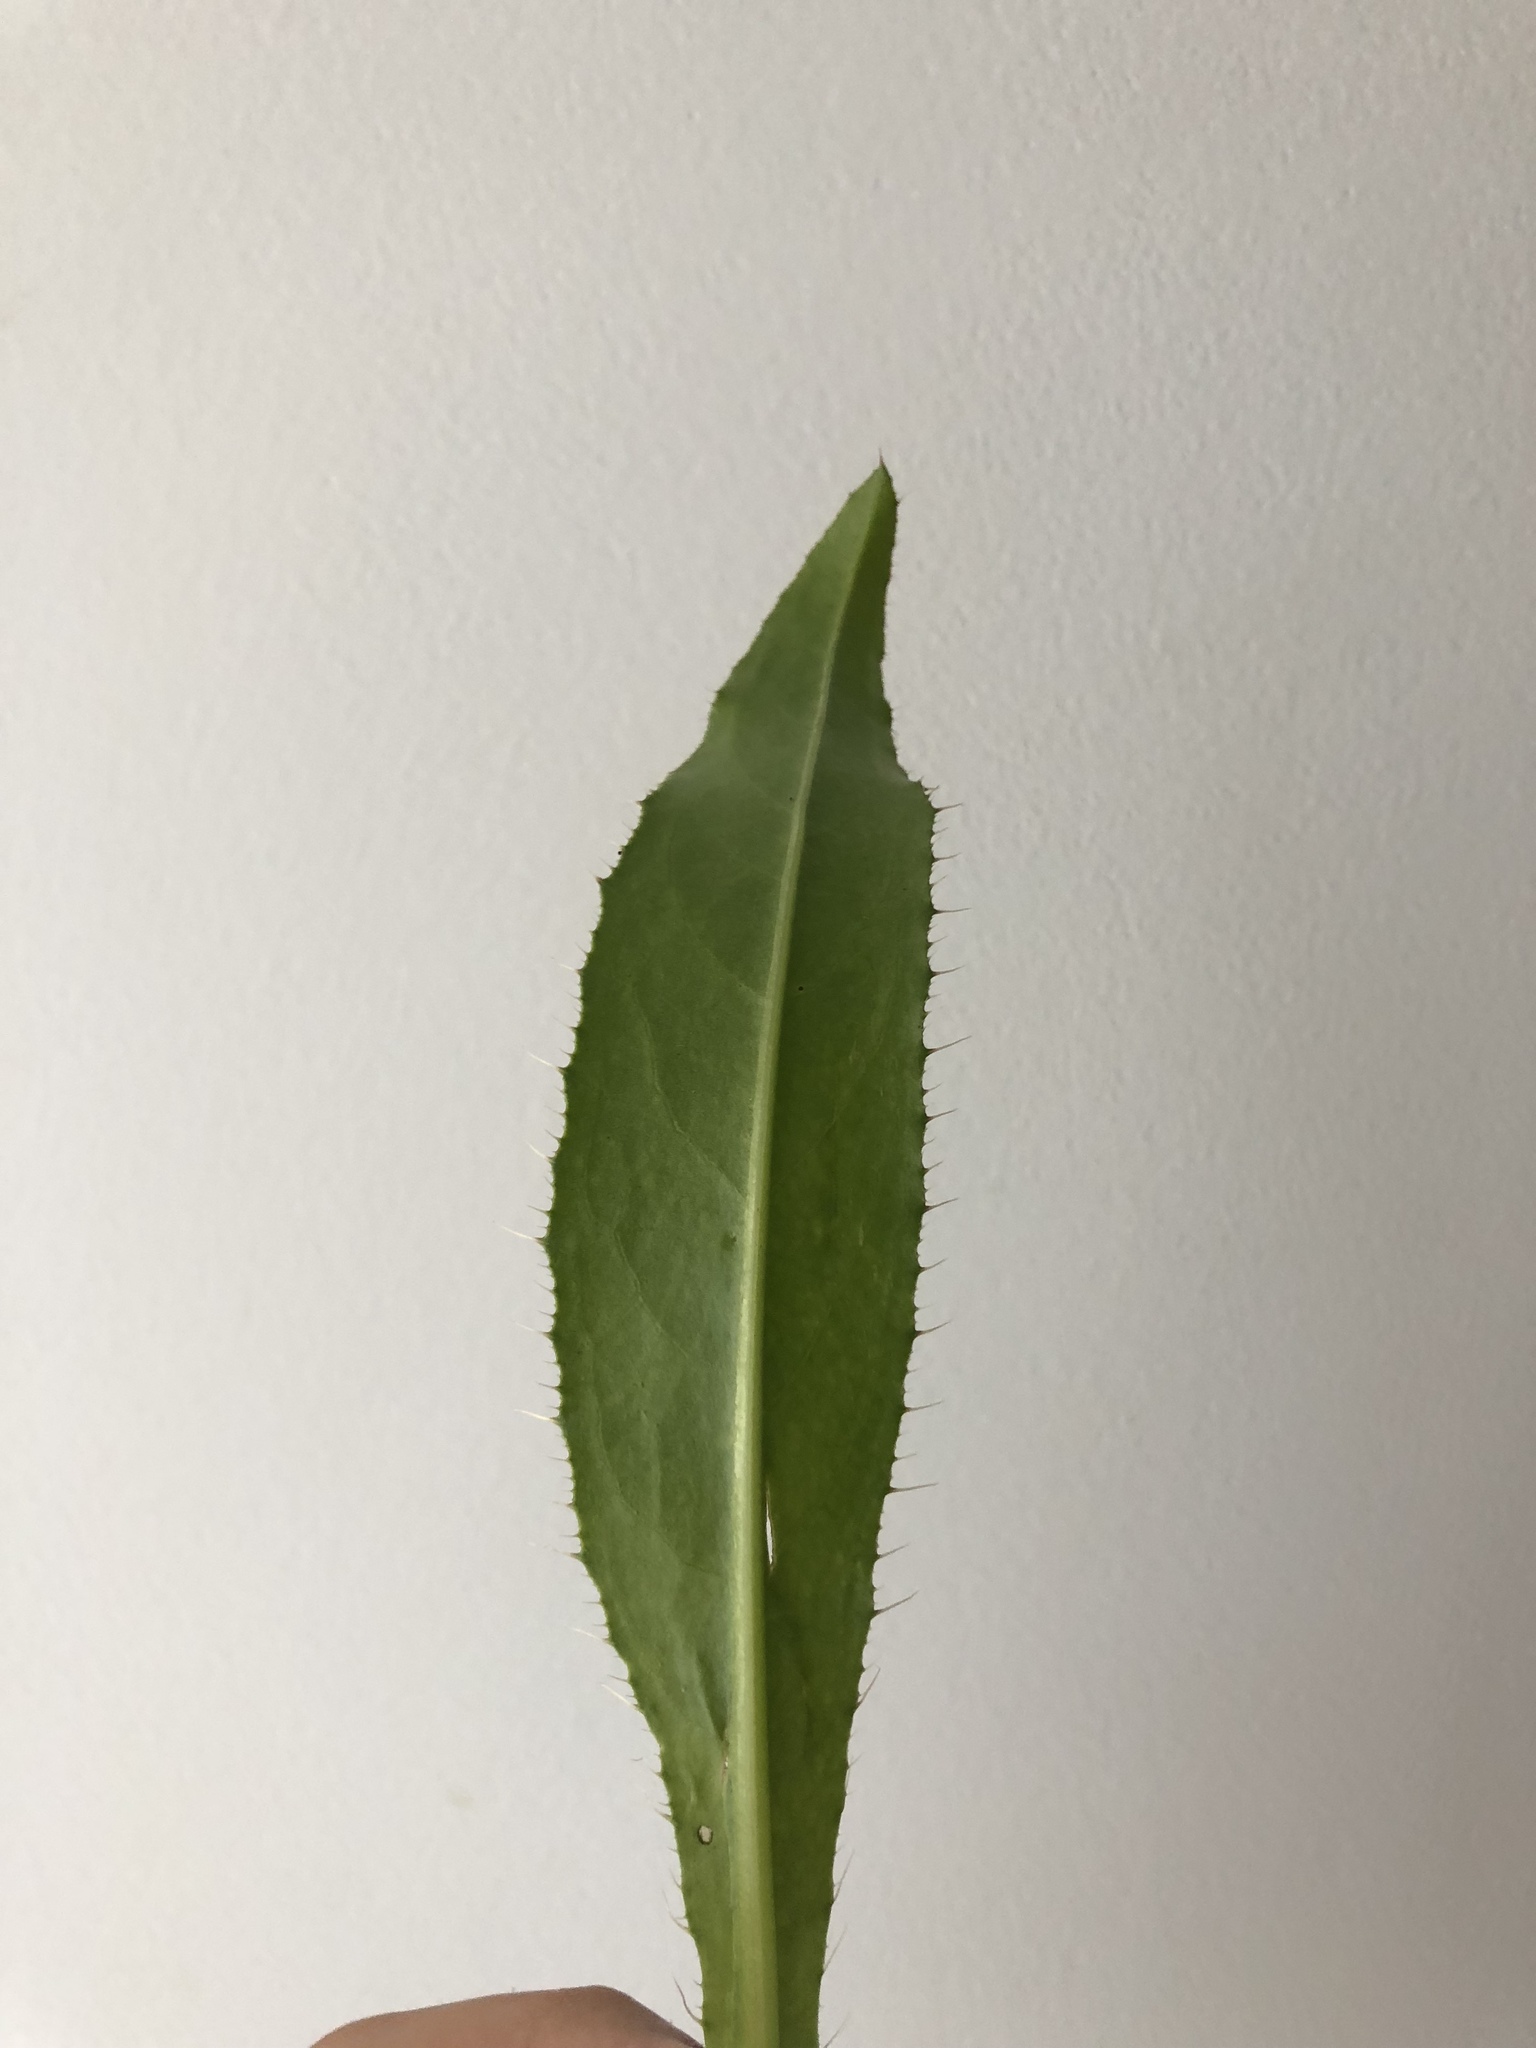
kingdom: Plantae
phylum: Tracheophyta
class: Magnoliopsida
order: Asterales
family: Asteraceae
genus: Cirsium
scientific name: Cirsium heterophyllum
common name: Melancholy thistle
